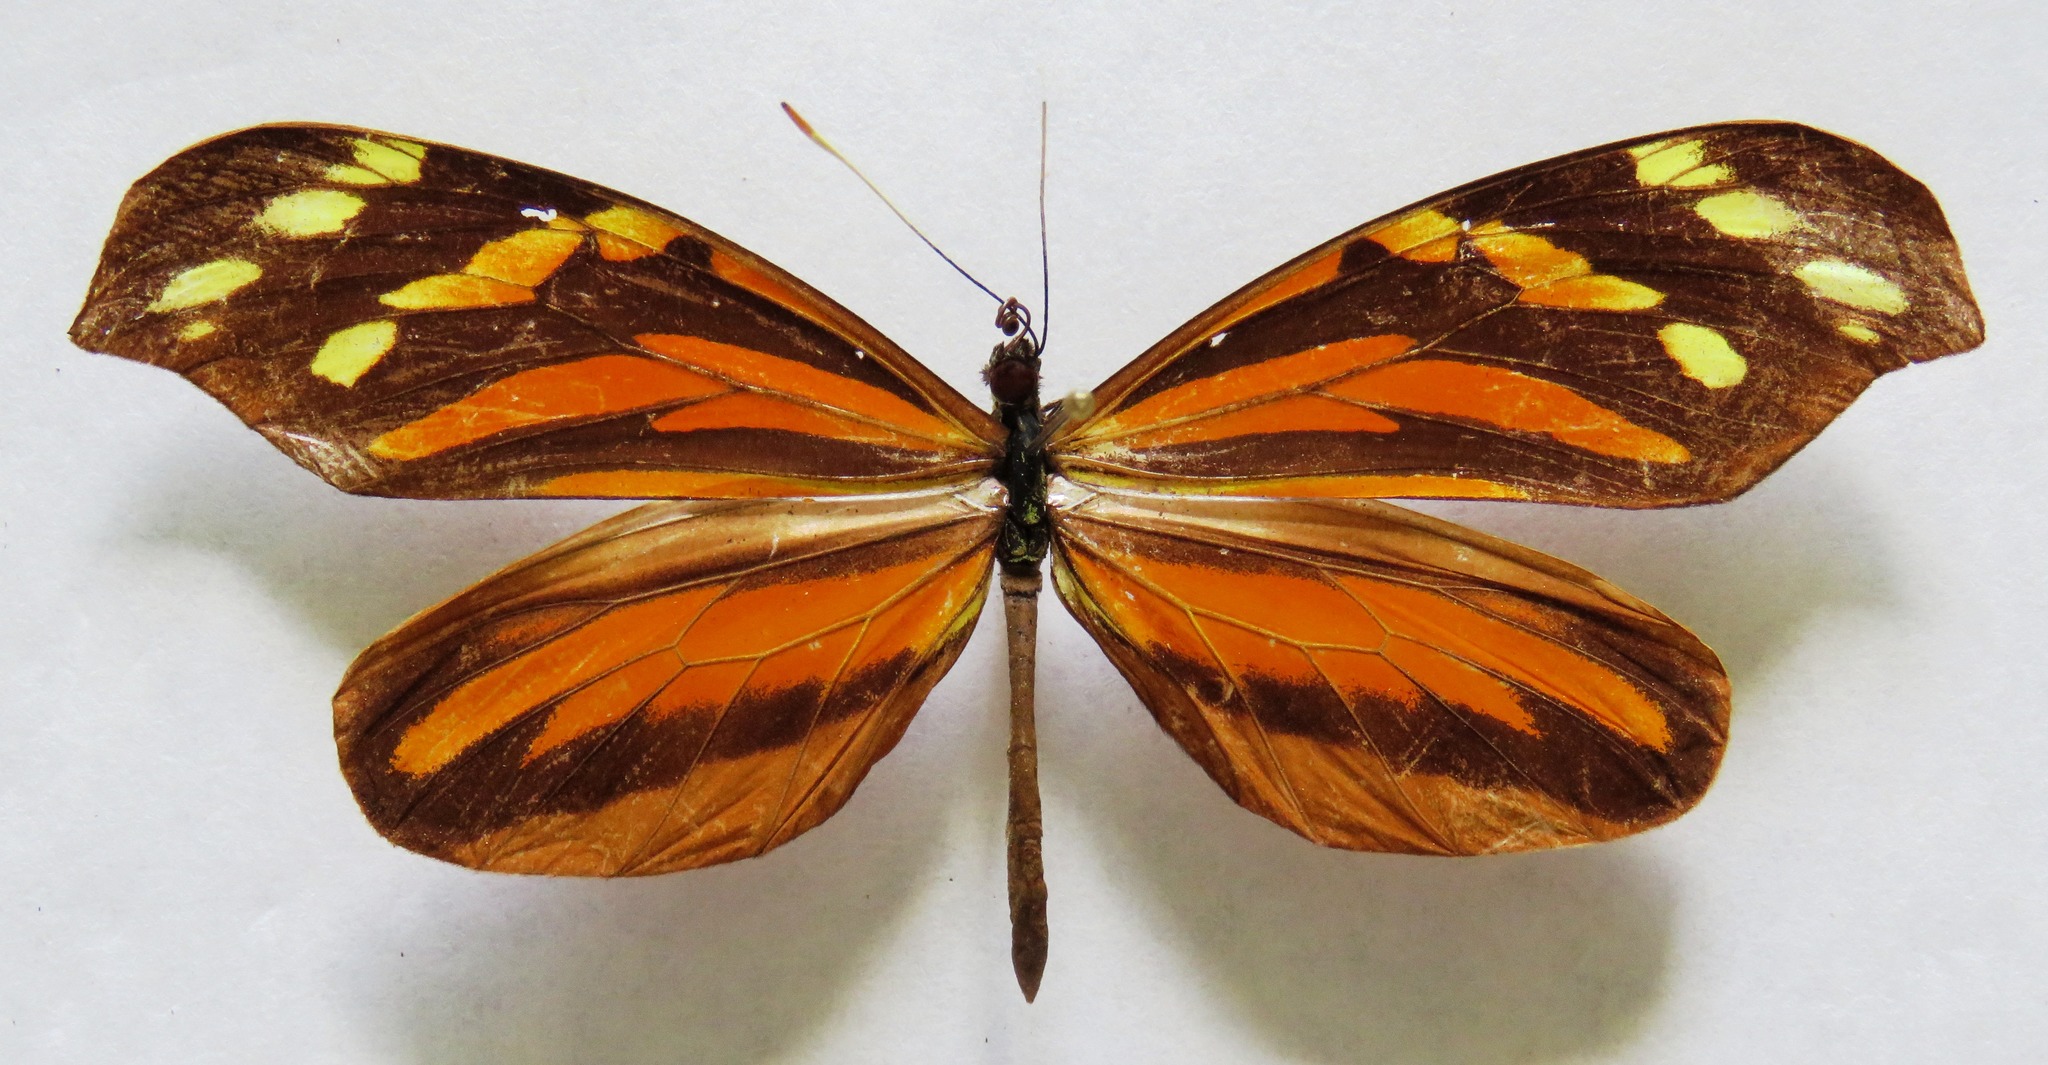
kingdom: Animalia
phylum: Arthropoda
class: Insecta
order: Lepidoptera
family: Pieridae
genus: Dismorphia
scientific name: Dismorphia amphione
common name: Tiger mimic-white
